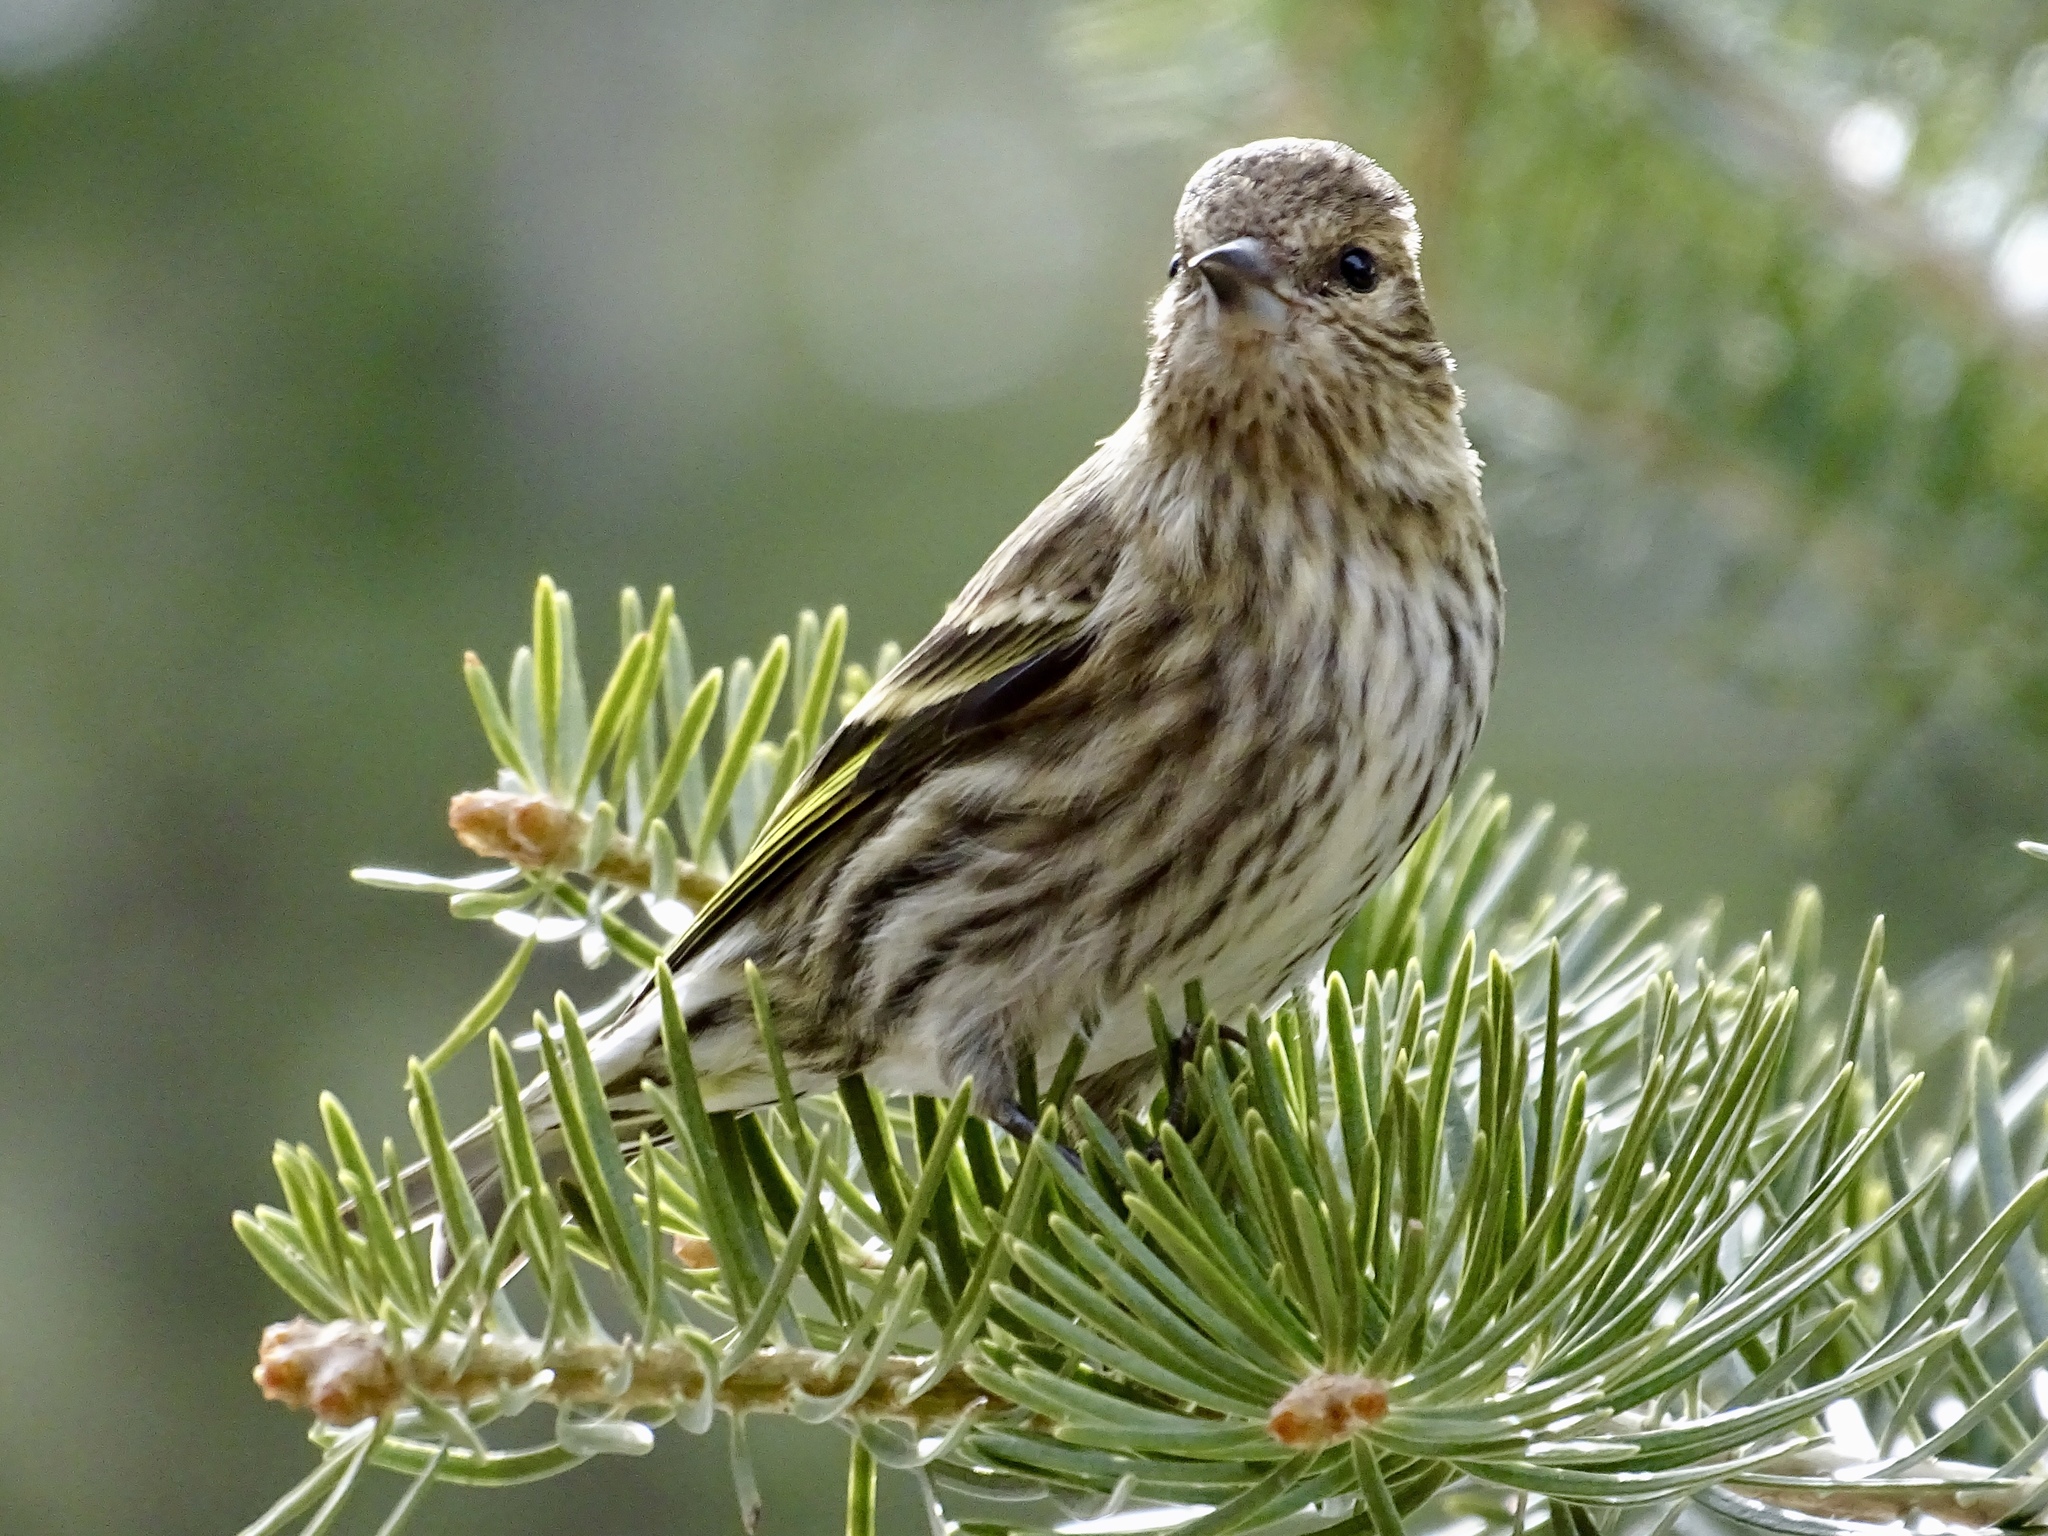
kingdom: Animalia
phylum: Chordata
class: Aves
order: Passeriformes
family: Fringillidae
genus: Spinus
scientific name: Spinus pinus
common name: Pine siskin
